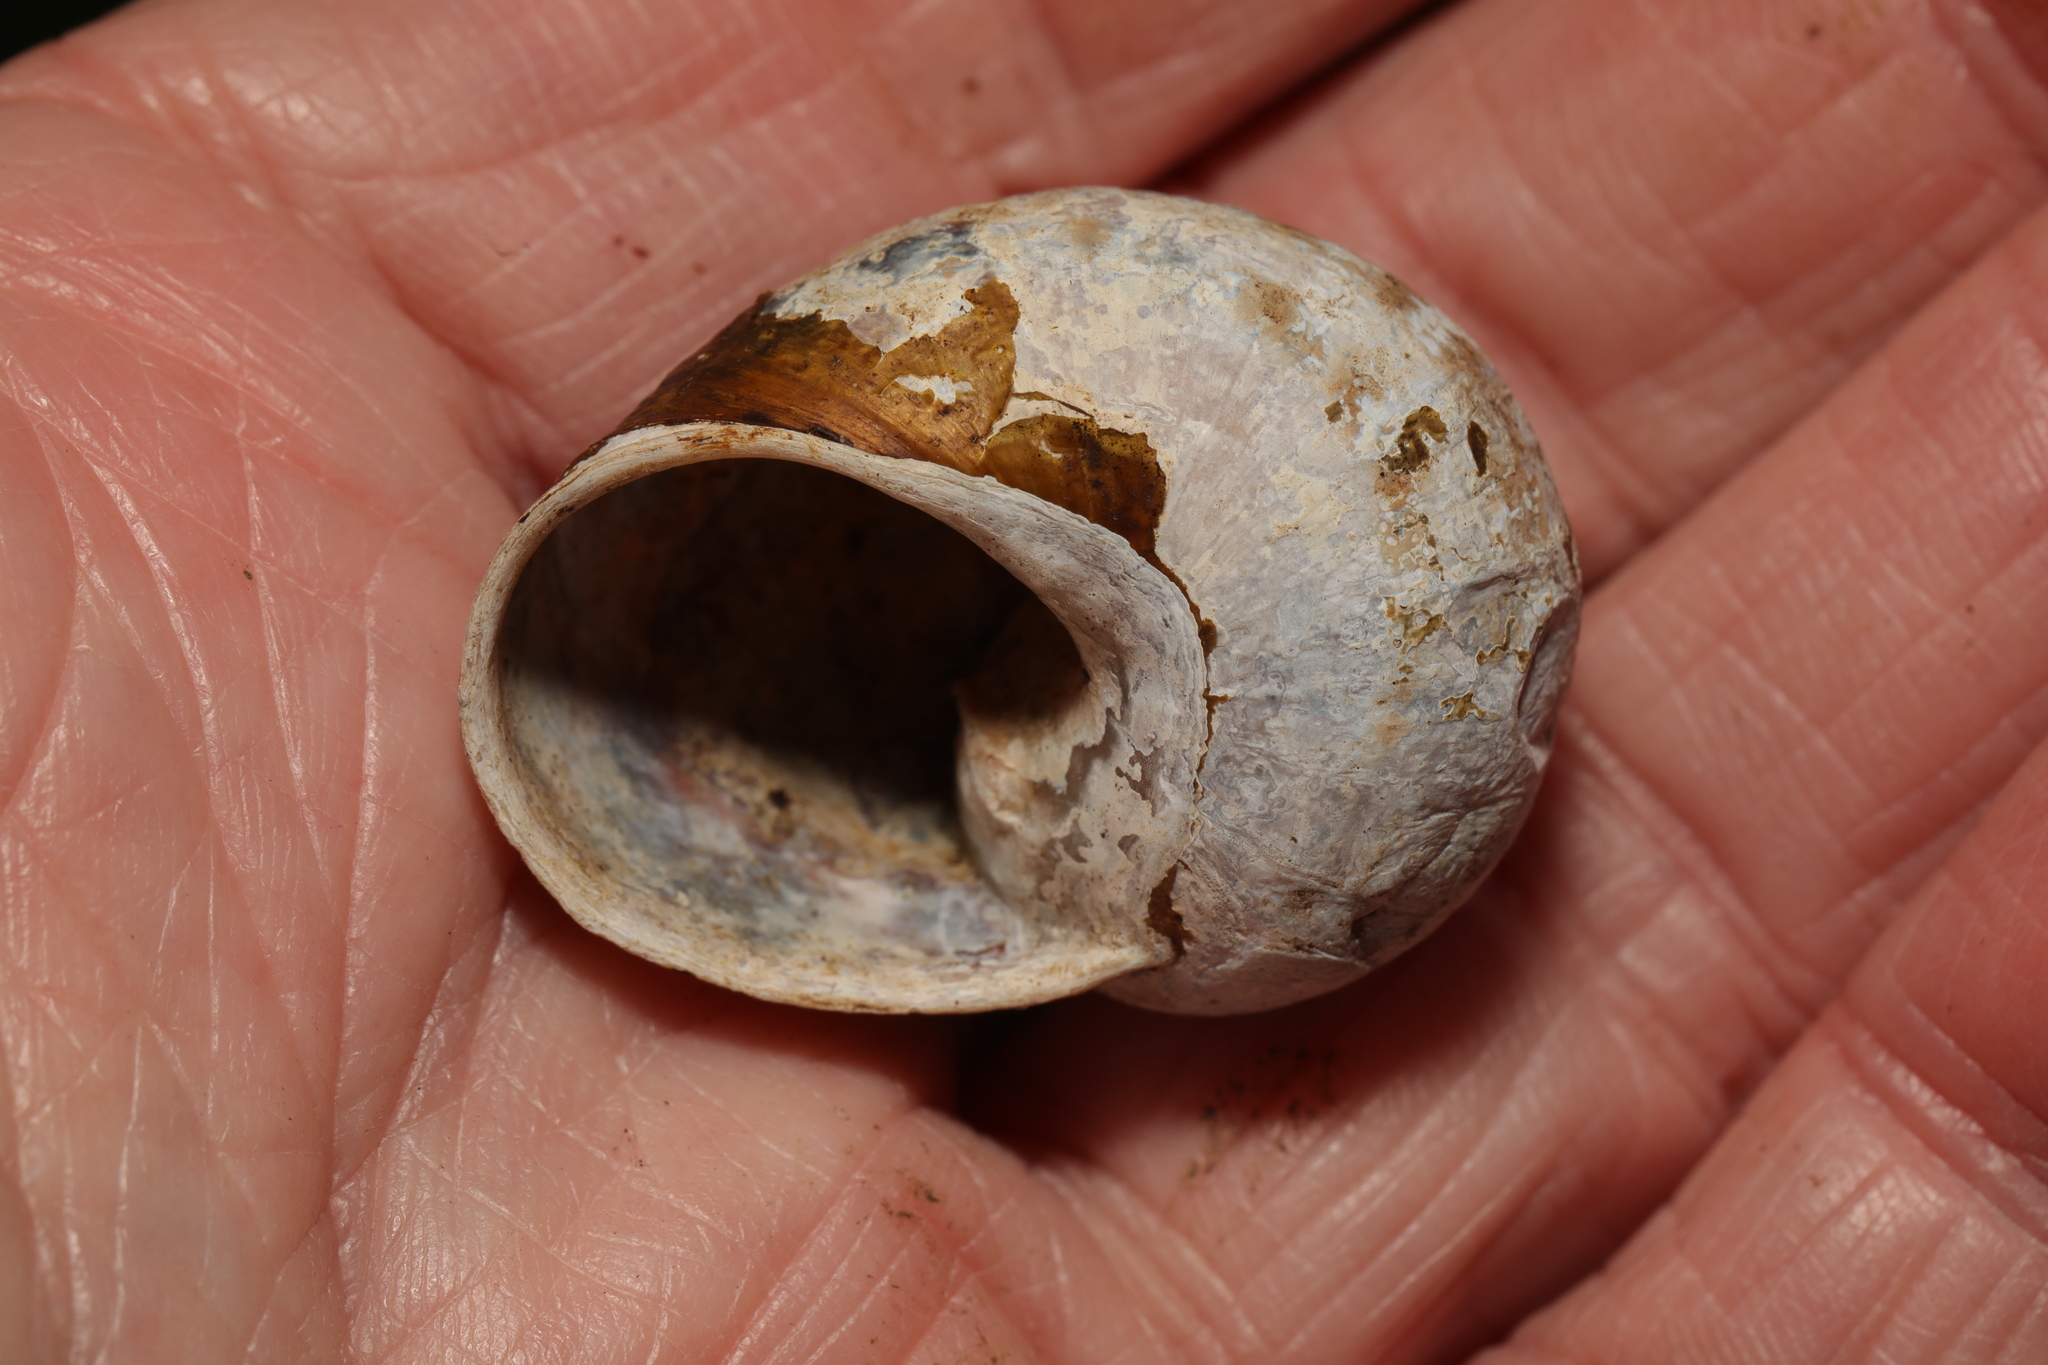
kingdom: Animalia
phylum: Mollusca
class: Gastropoda
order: Stylommatophora
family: Helicidae
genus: Cornu
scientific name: Cornu aspersum
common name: Brown garden snail
